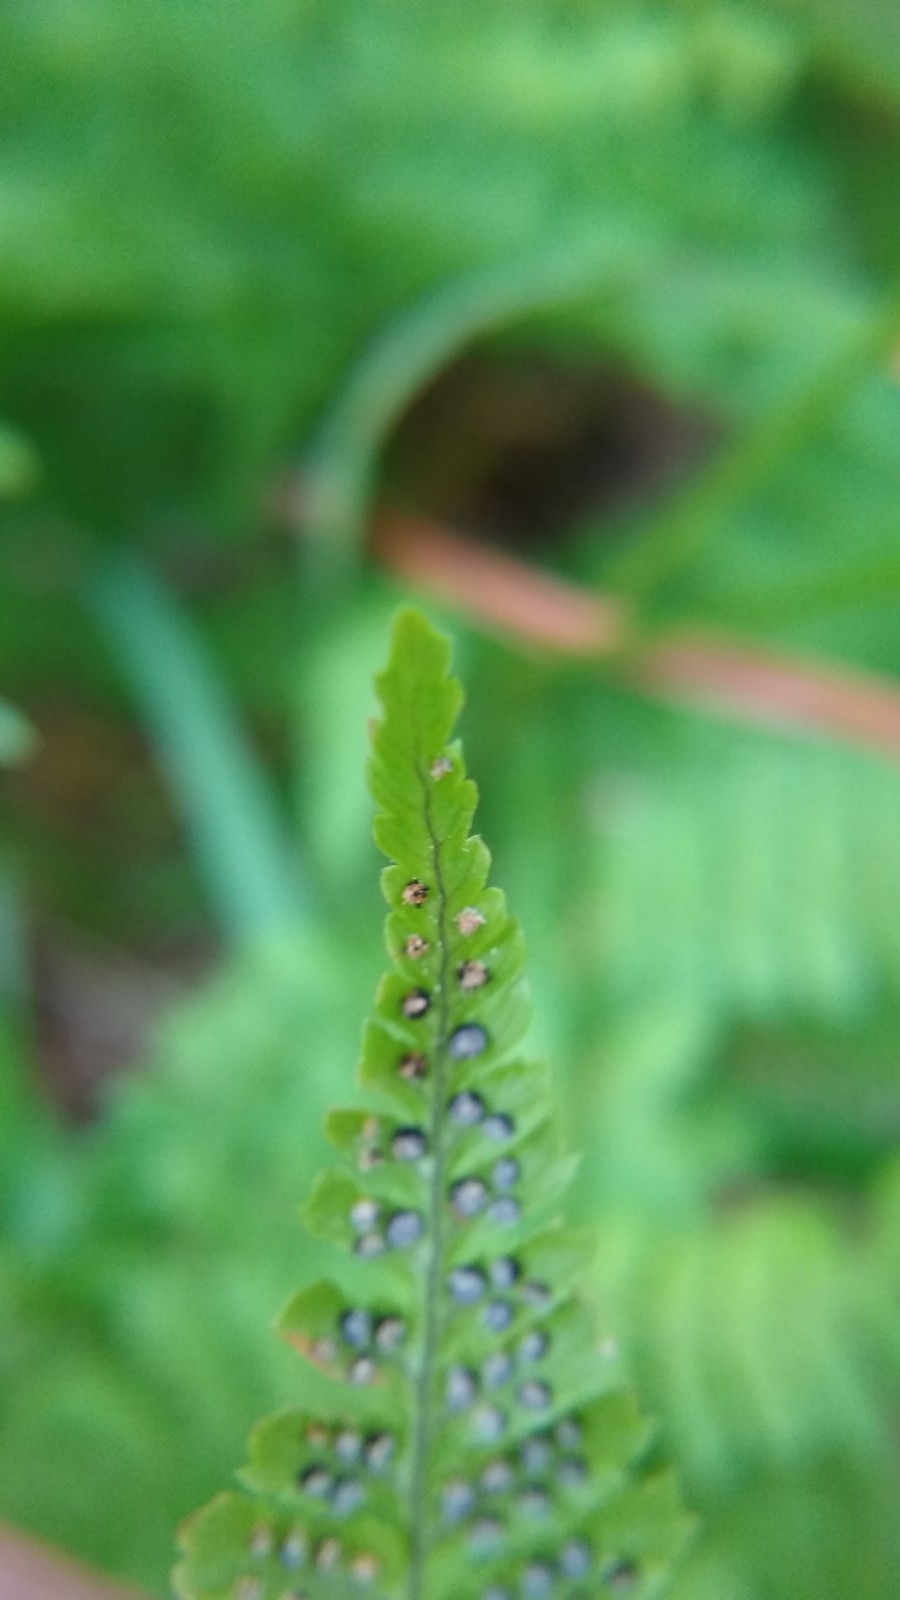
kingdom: Plantae
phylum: Tracheophyta
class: Polypodiopsida
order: Polypodiales
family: Dryopteridaceae
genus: Dryopteris
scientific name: Dryopteris intermedia
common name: Evergreen wood fern
